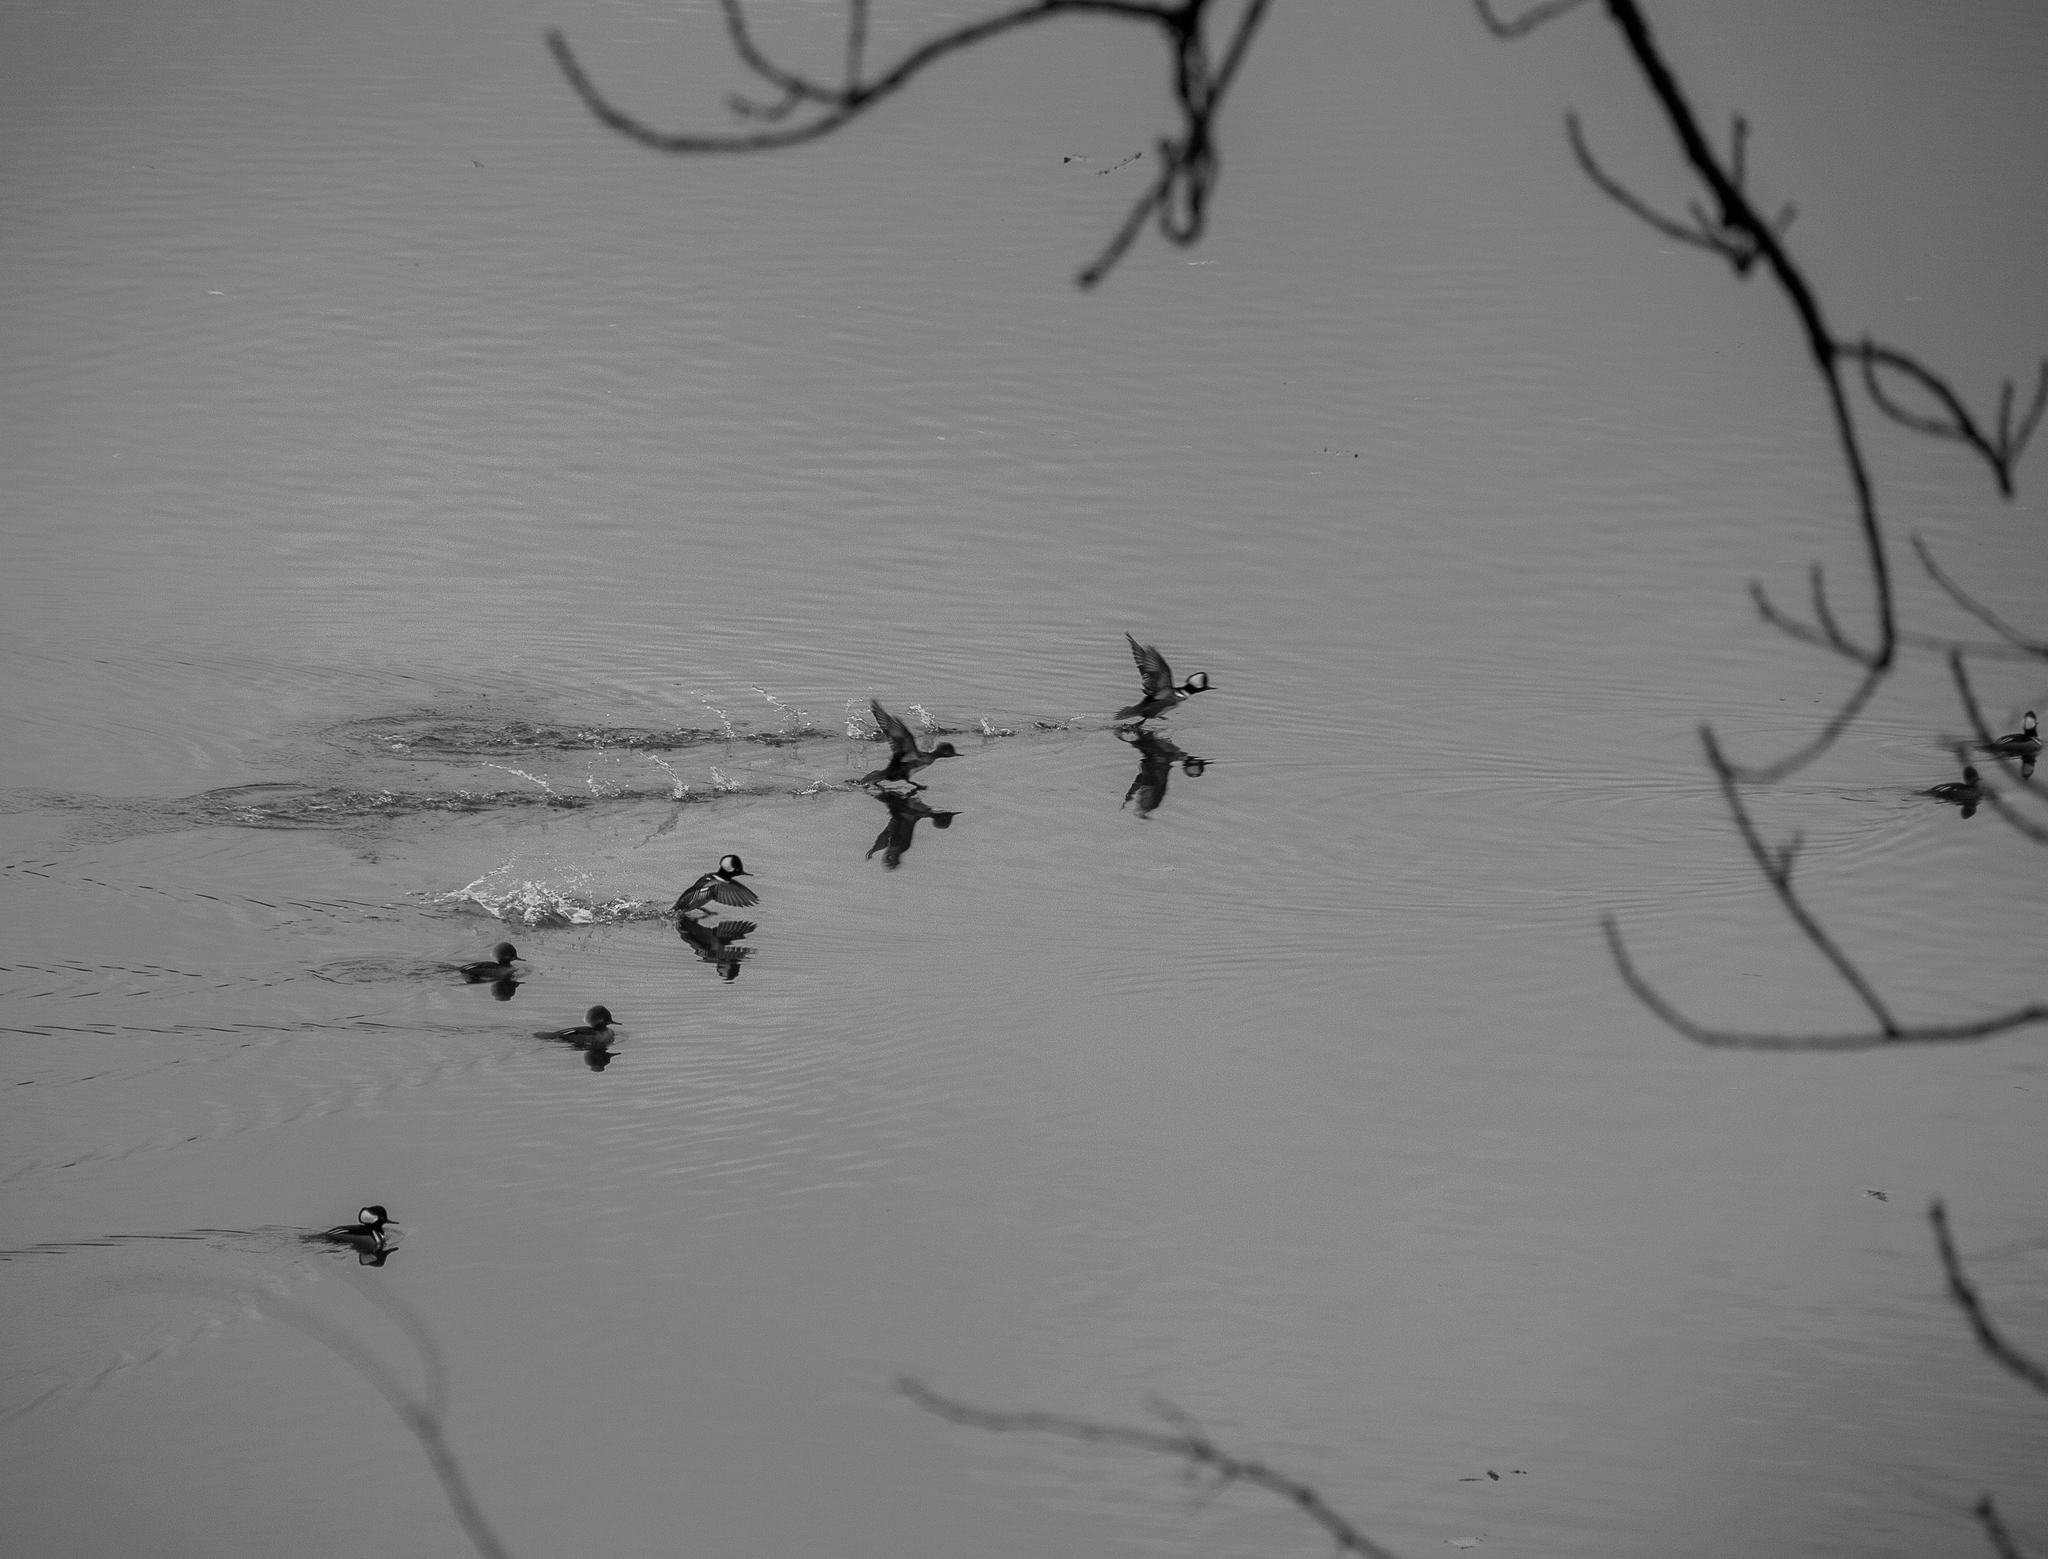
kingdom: Animalia
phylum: Chordata
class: Aves
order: Anseriformes
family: Anatidae
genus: Lophodytes
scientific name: Lophodytes cucullatus
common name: Hooded merganser
